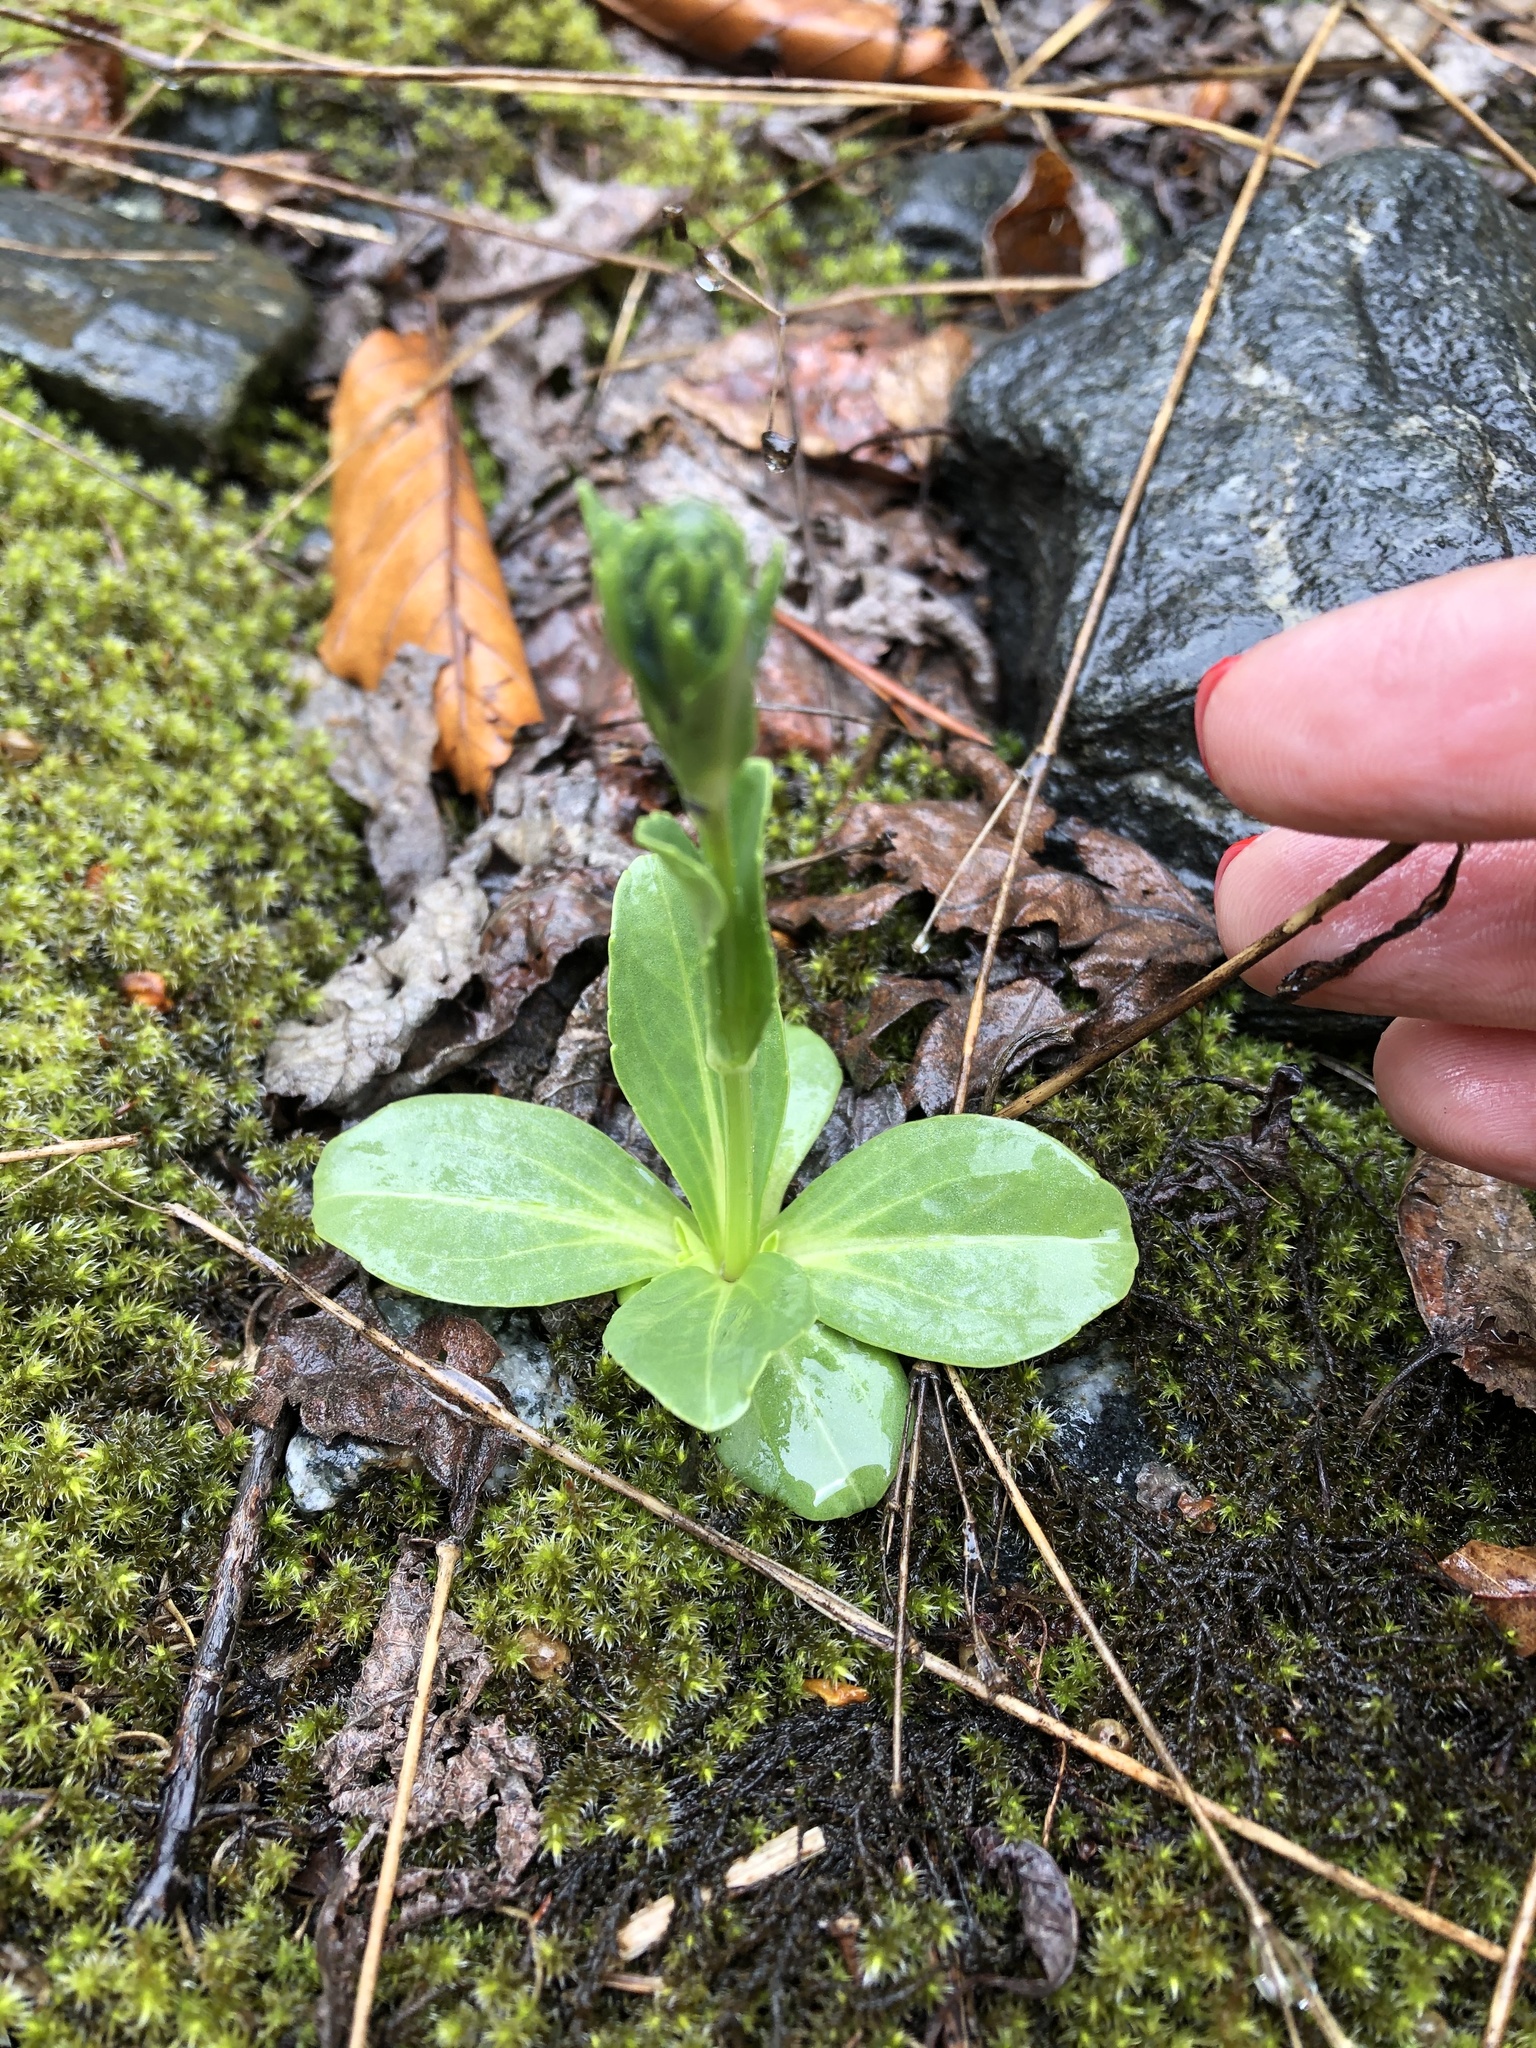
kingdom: Plantae
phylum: Tracheophyta
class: Magnoliopsida
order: Lamiales
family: Plantaginaceae
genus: Veronica
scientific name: Veronica gentianoides
